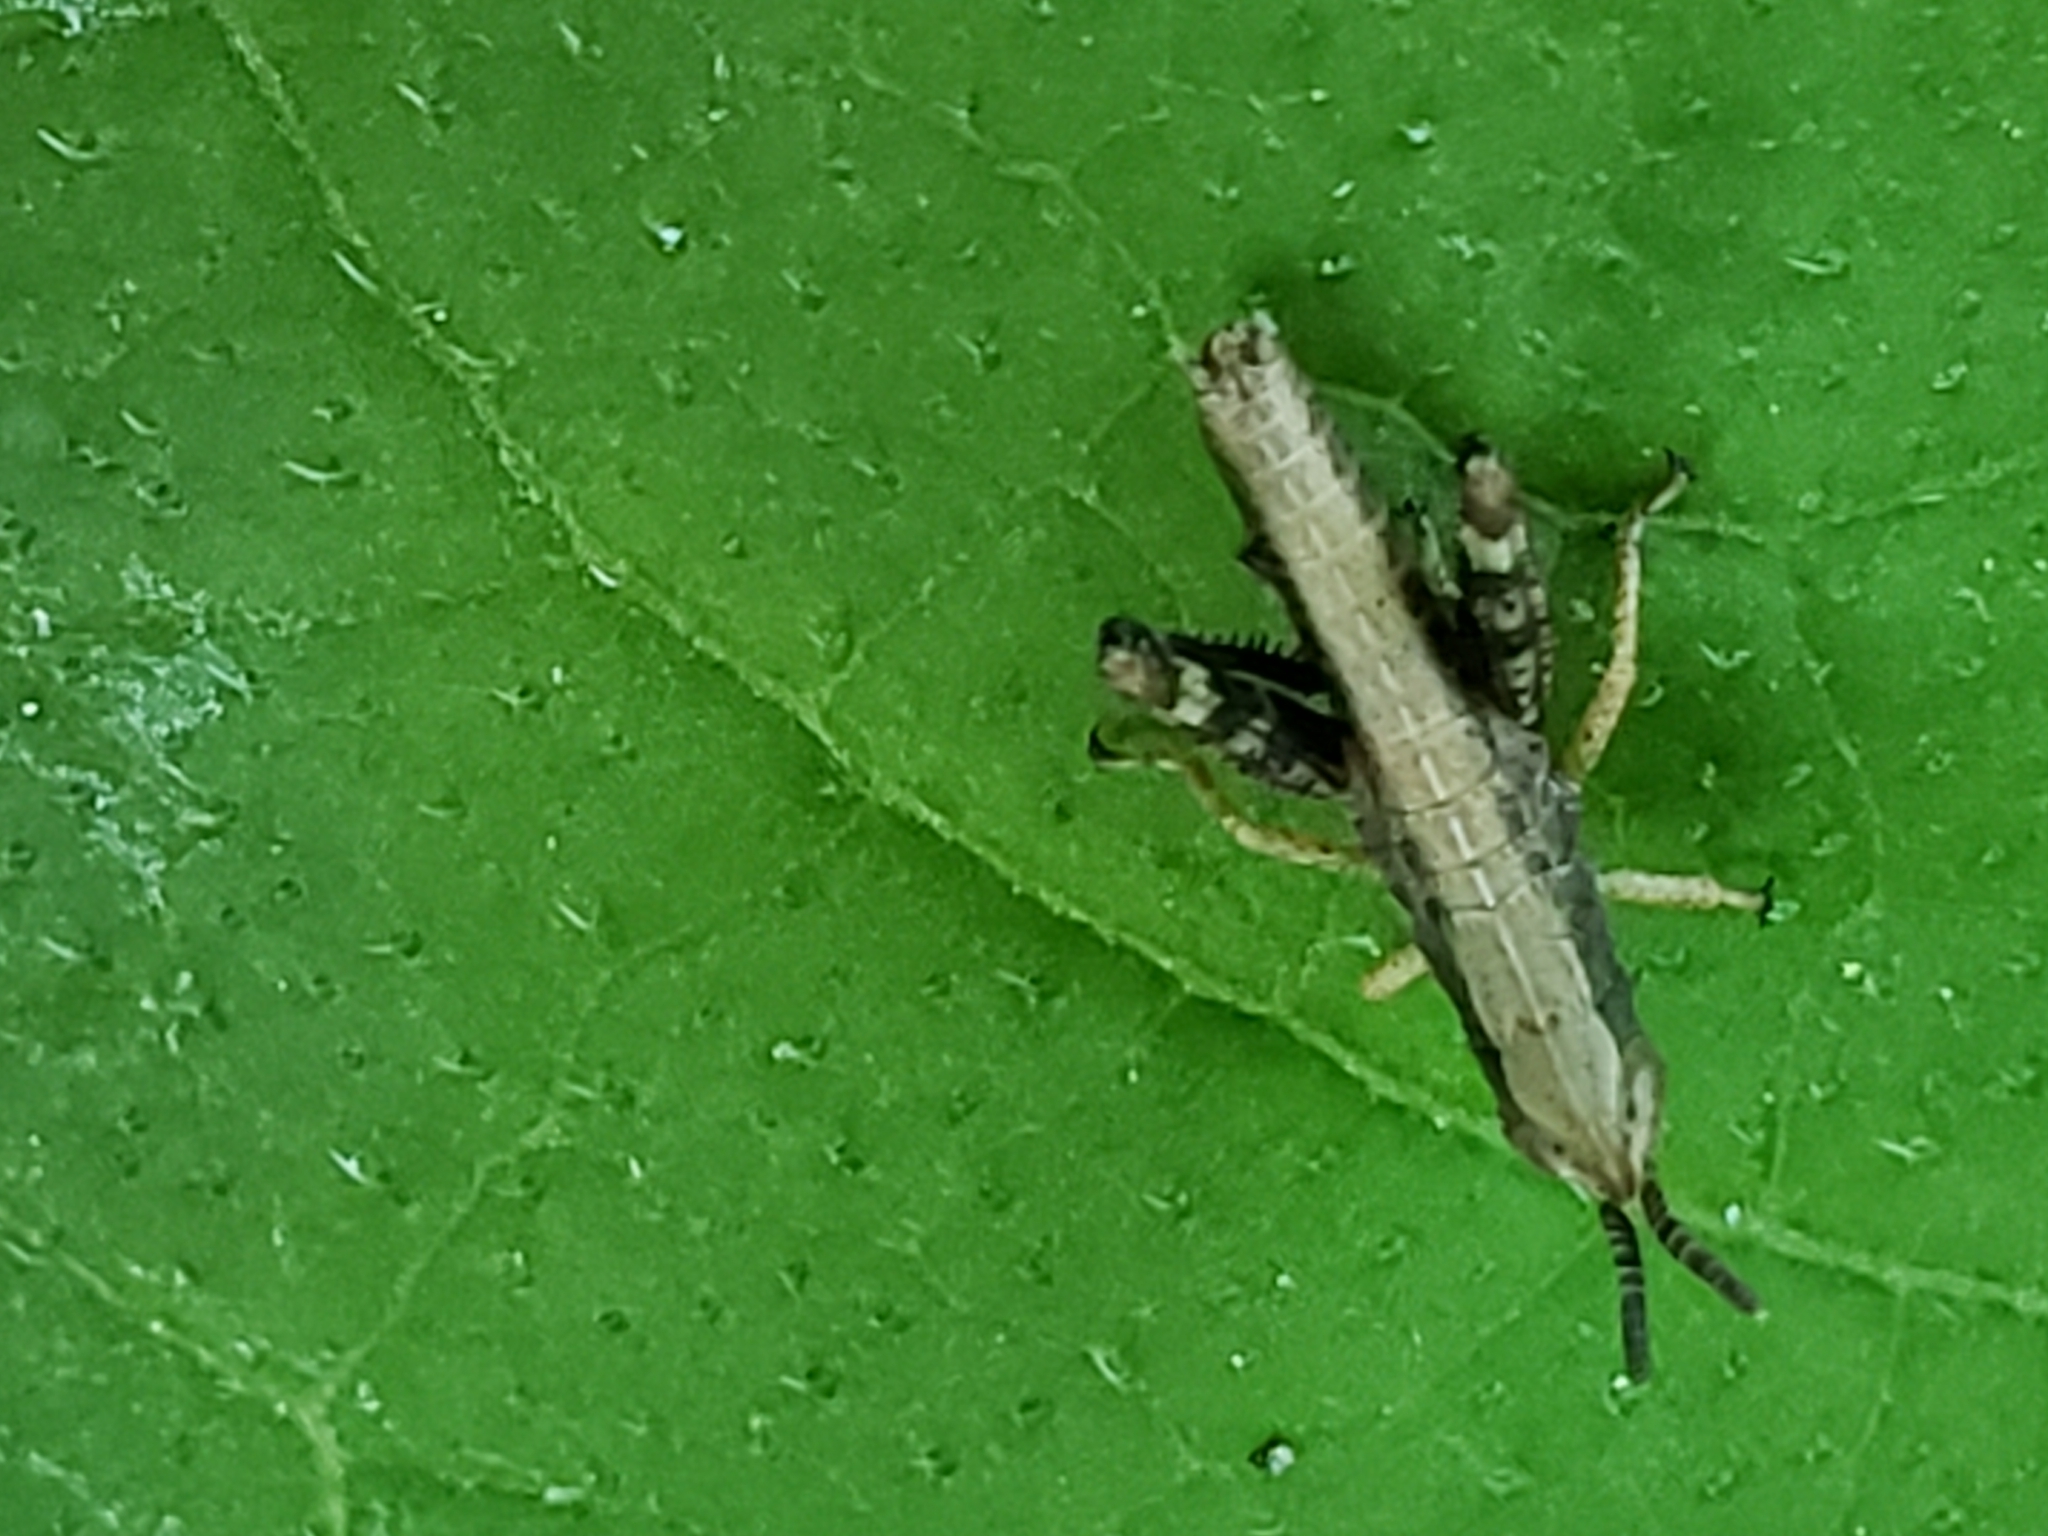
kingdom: Animalia
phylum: Arthropoda
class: Insecta
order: Orthoptera
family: Acrididae
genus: Dichromorpha
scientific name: Dichromorpha viridis
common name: Short-winged green grasshopper
